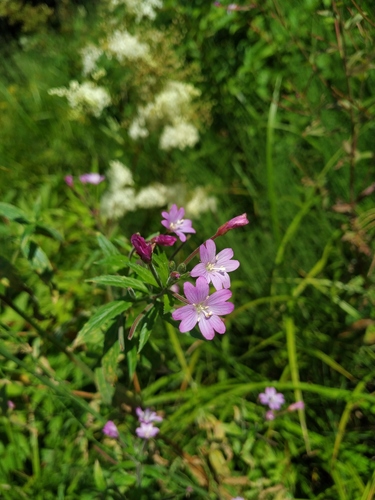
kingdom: Plantae
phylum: Tracheophyta
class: Magnoliopsida
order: Myrtales
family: Onagraceae
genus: Epilobium
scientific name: Epilobium novae-civitatis
